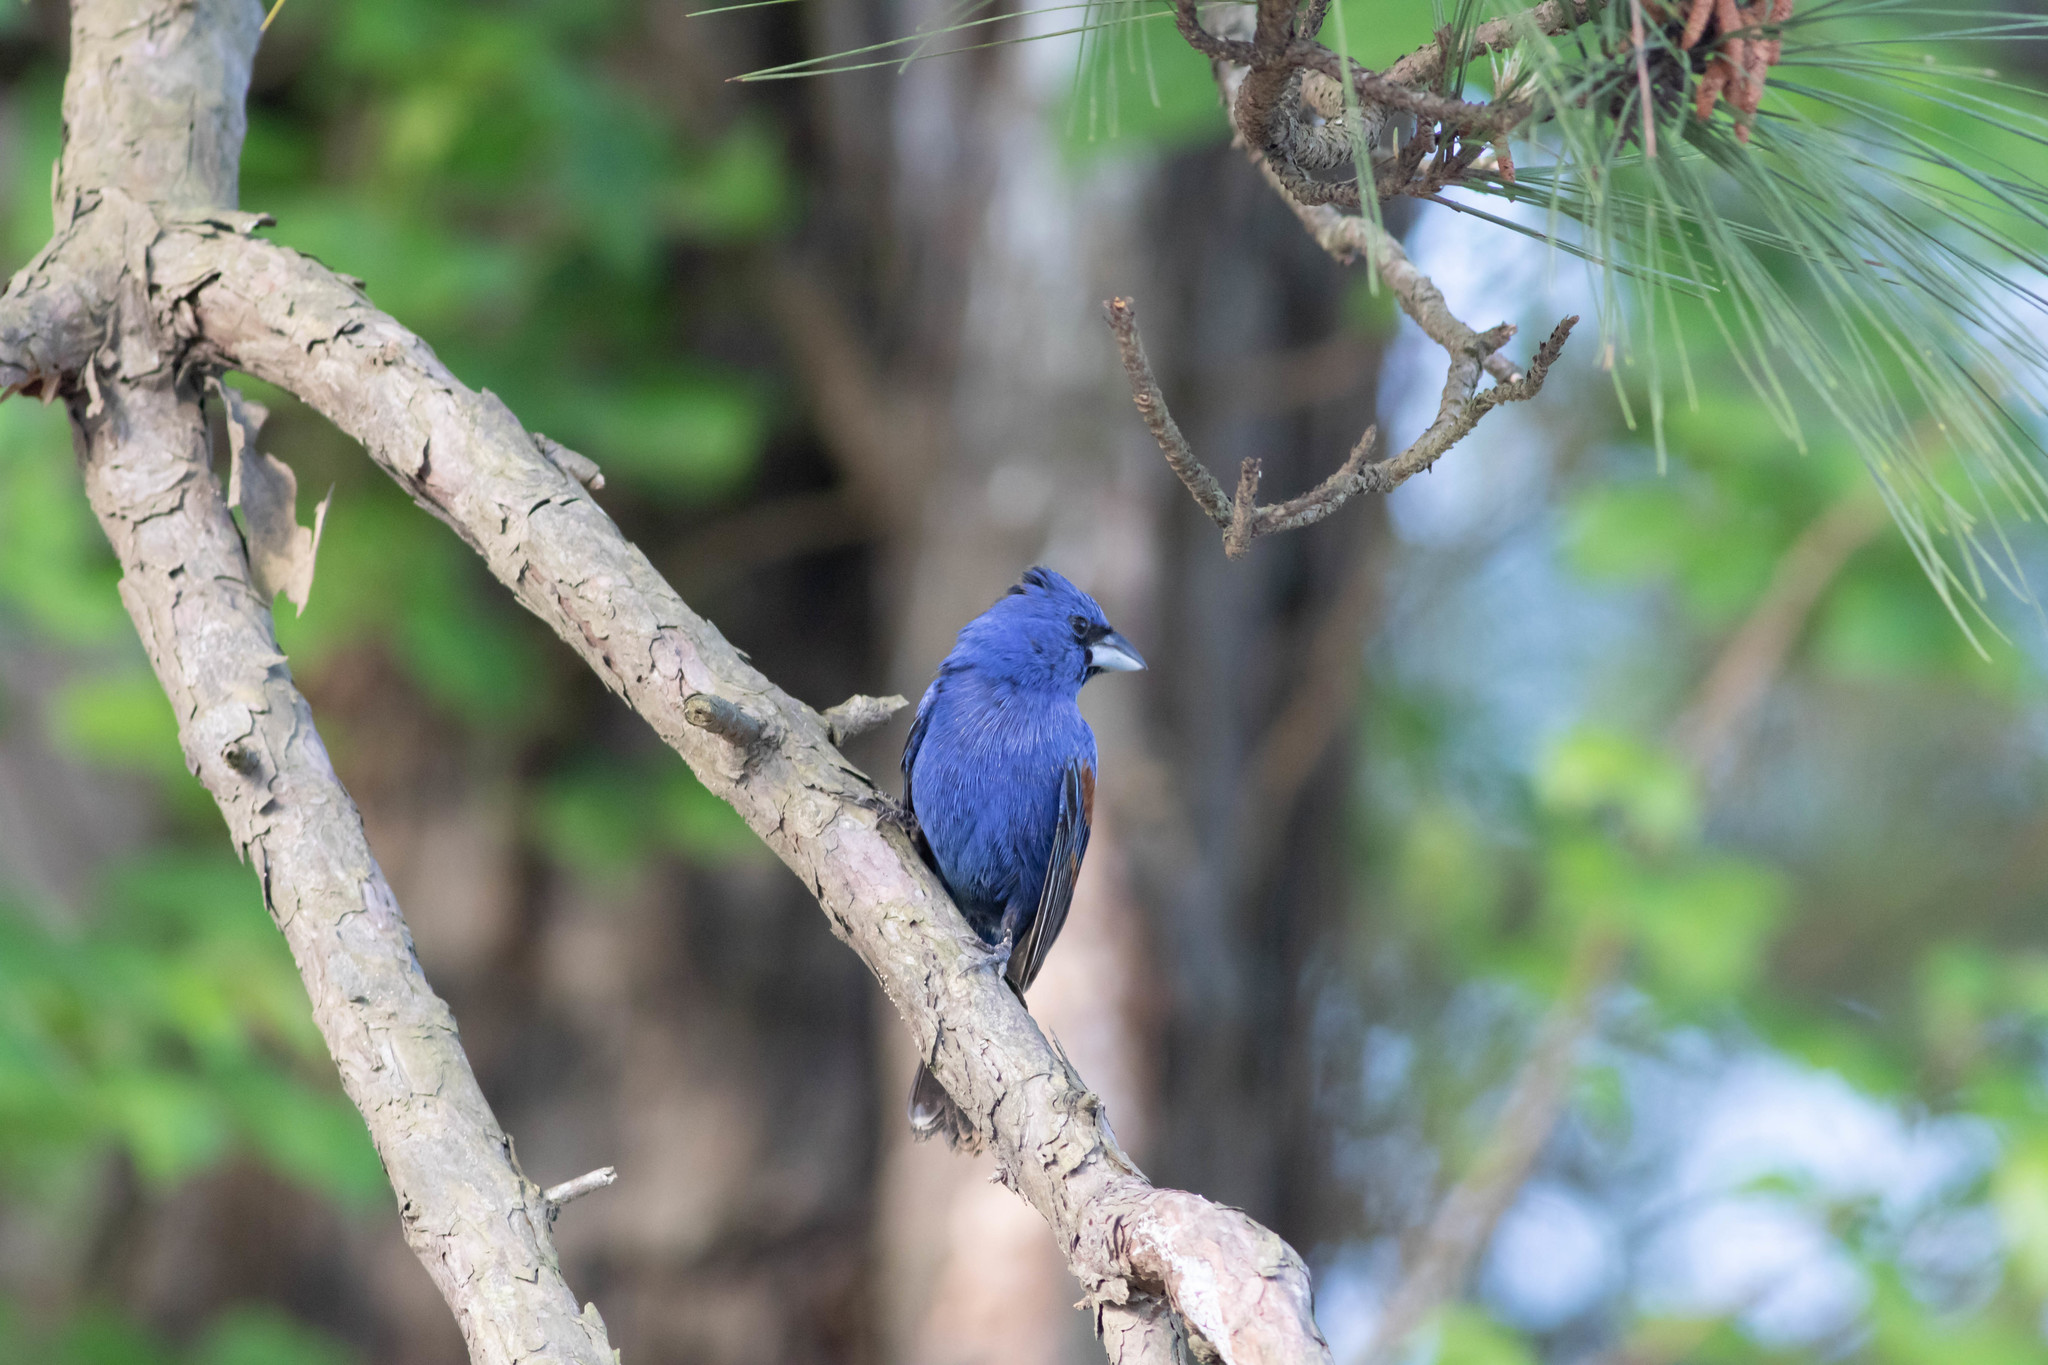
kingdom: Animalia
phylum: Chordata
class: Aves
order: Passeriformes
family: Cardinalidae
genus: Passerina
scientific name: Passerina caerulea
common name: Blue grosbeak
